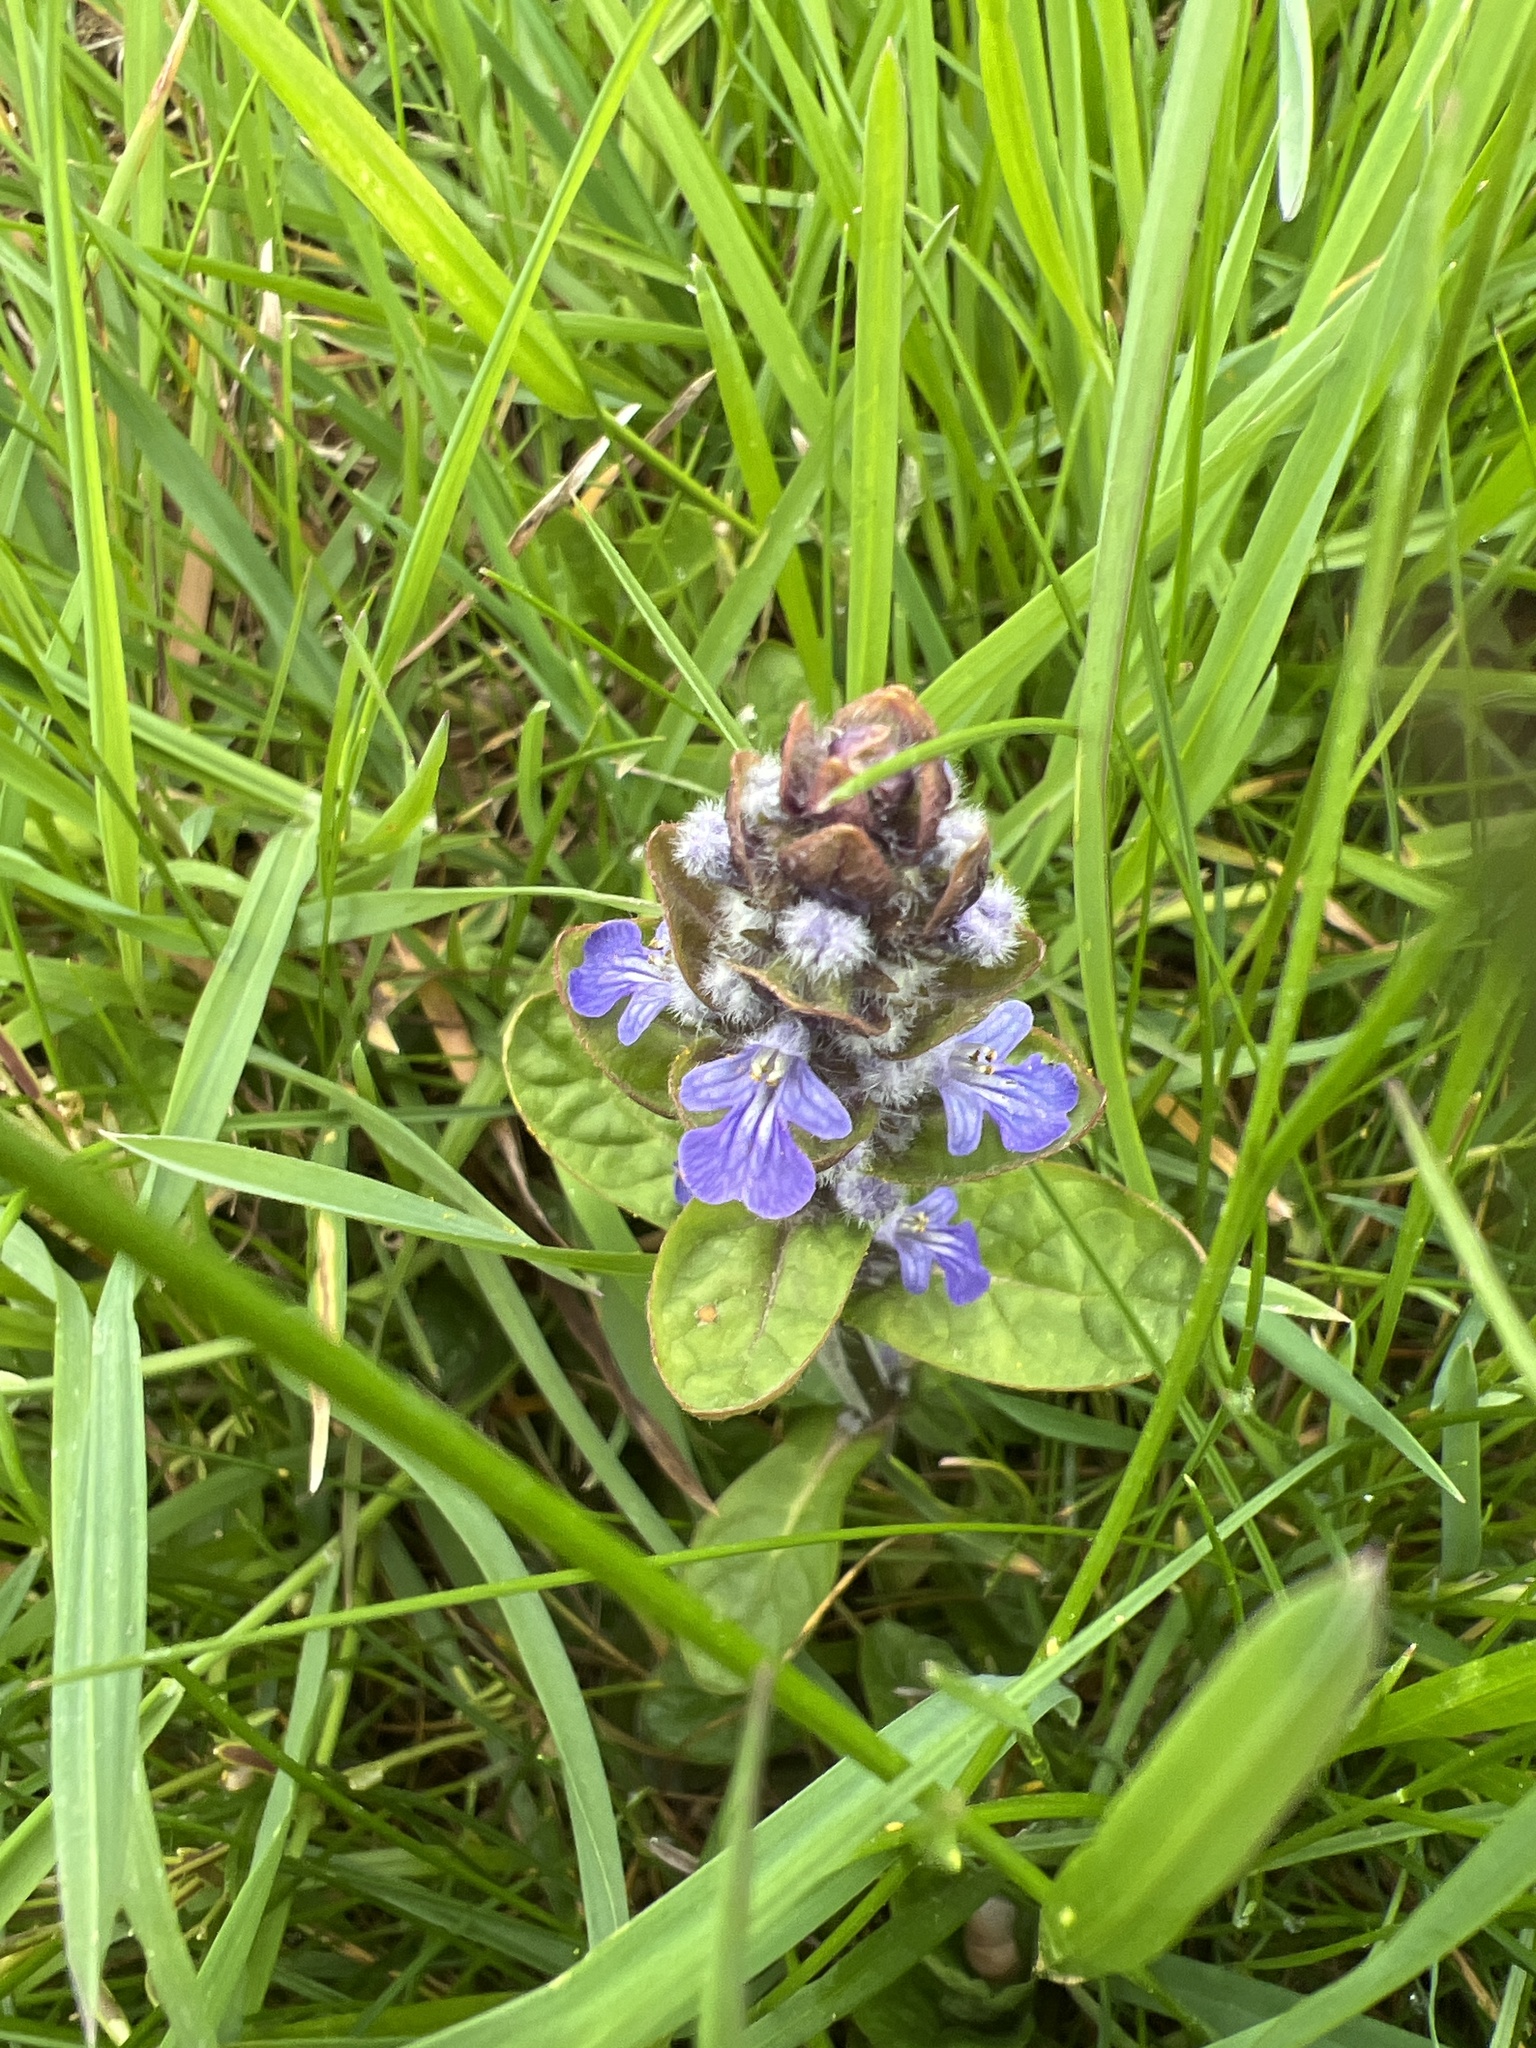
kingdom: Plantae
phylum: Tracheophyta
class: Magnoliopsida
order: Lamiales
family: Lamiaceae
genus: Ajuga
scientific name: Ajuga reptans
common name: Bugle
